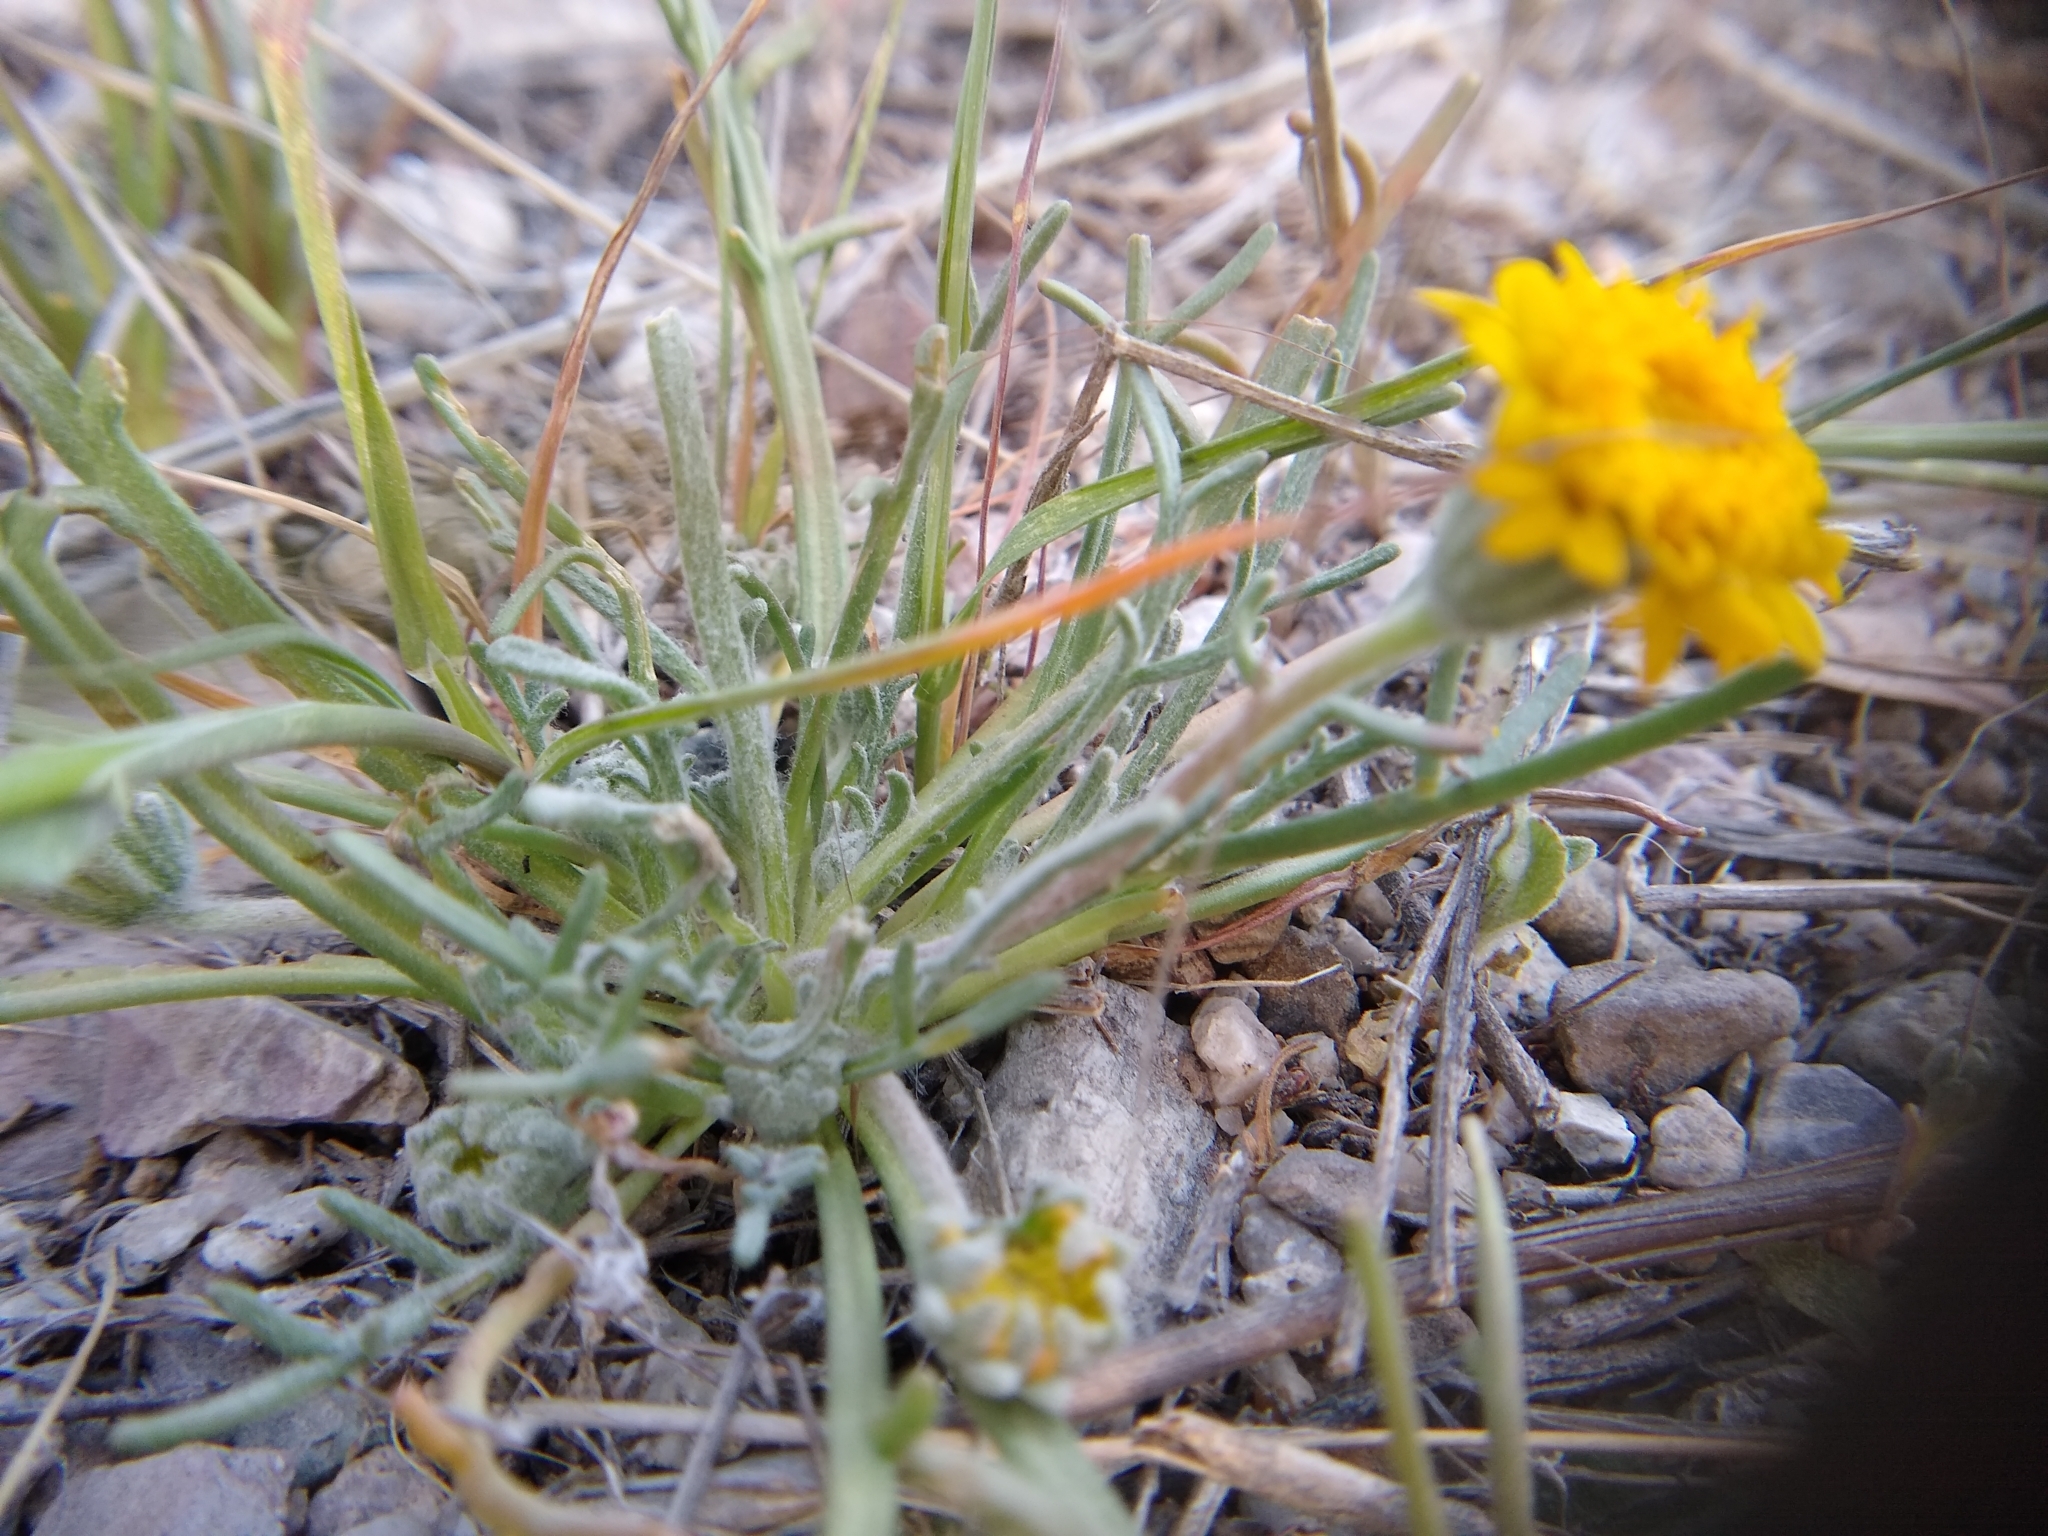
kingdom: Plantae
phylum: Tracheophyta
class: Magnoliopsida
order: Asterales
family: Asteraceae
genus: Chaenactis
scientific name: Chaenactis glabriuscula
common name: Yellow pincushion
